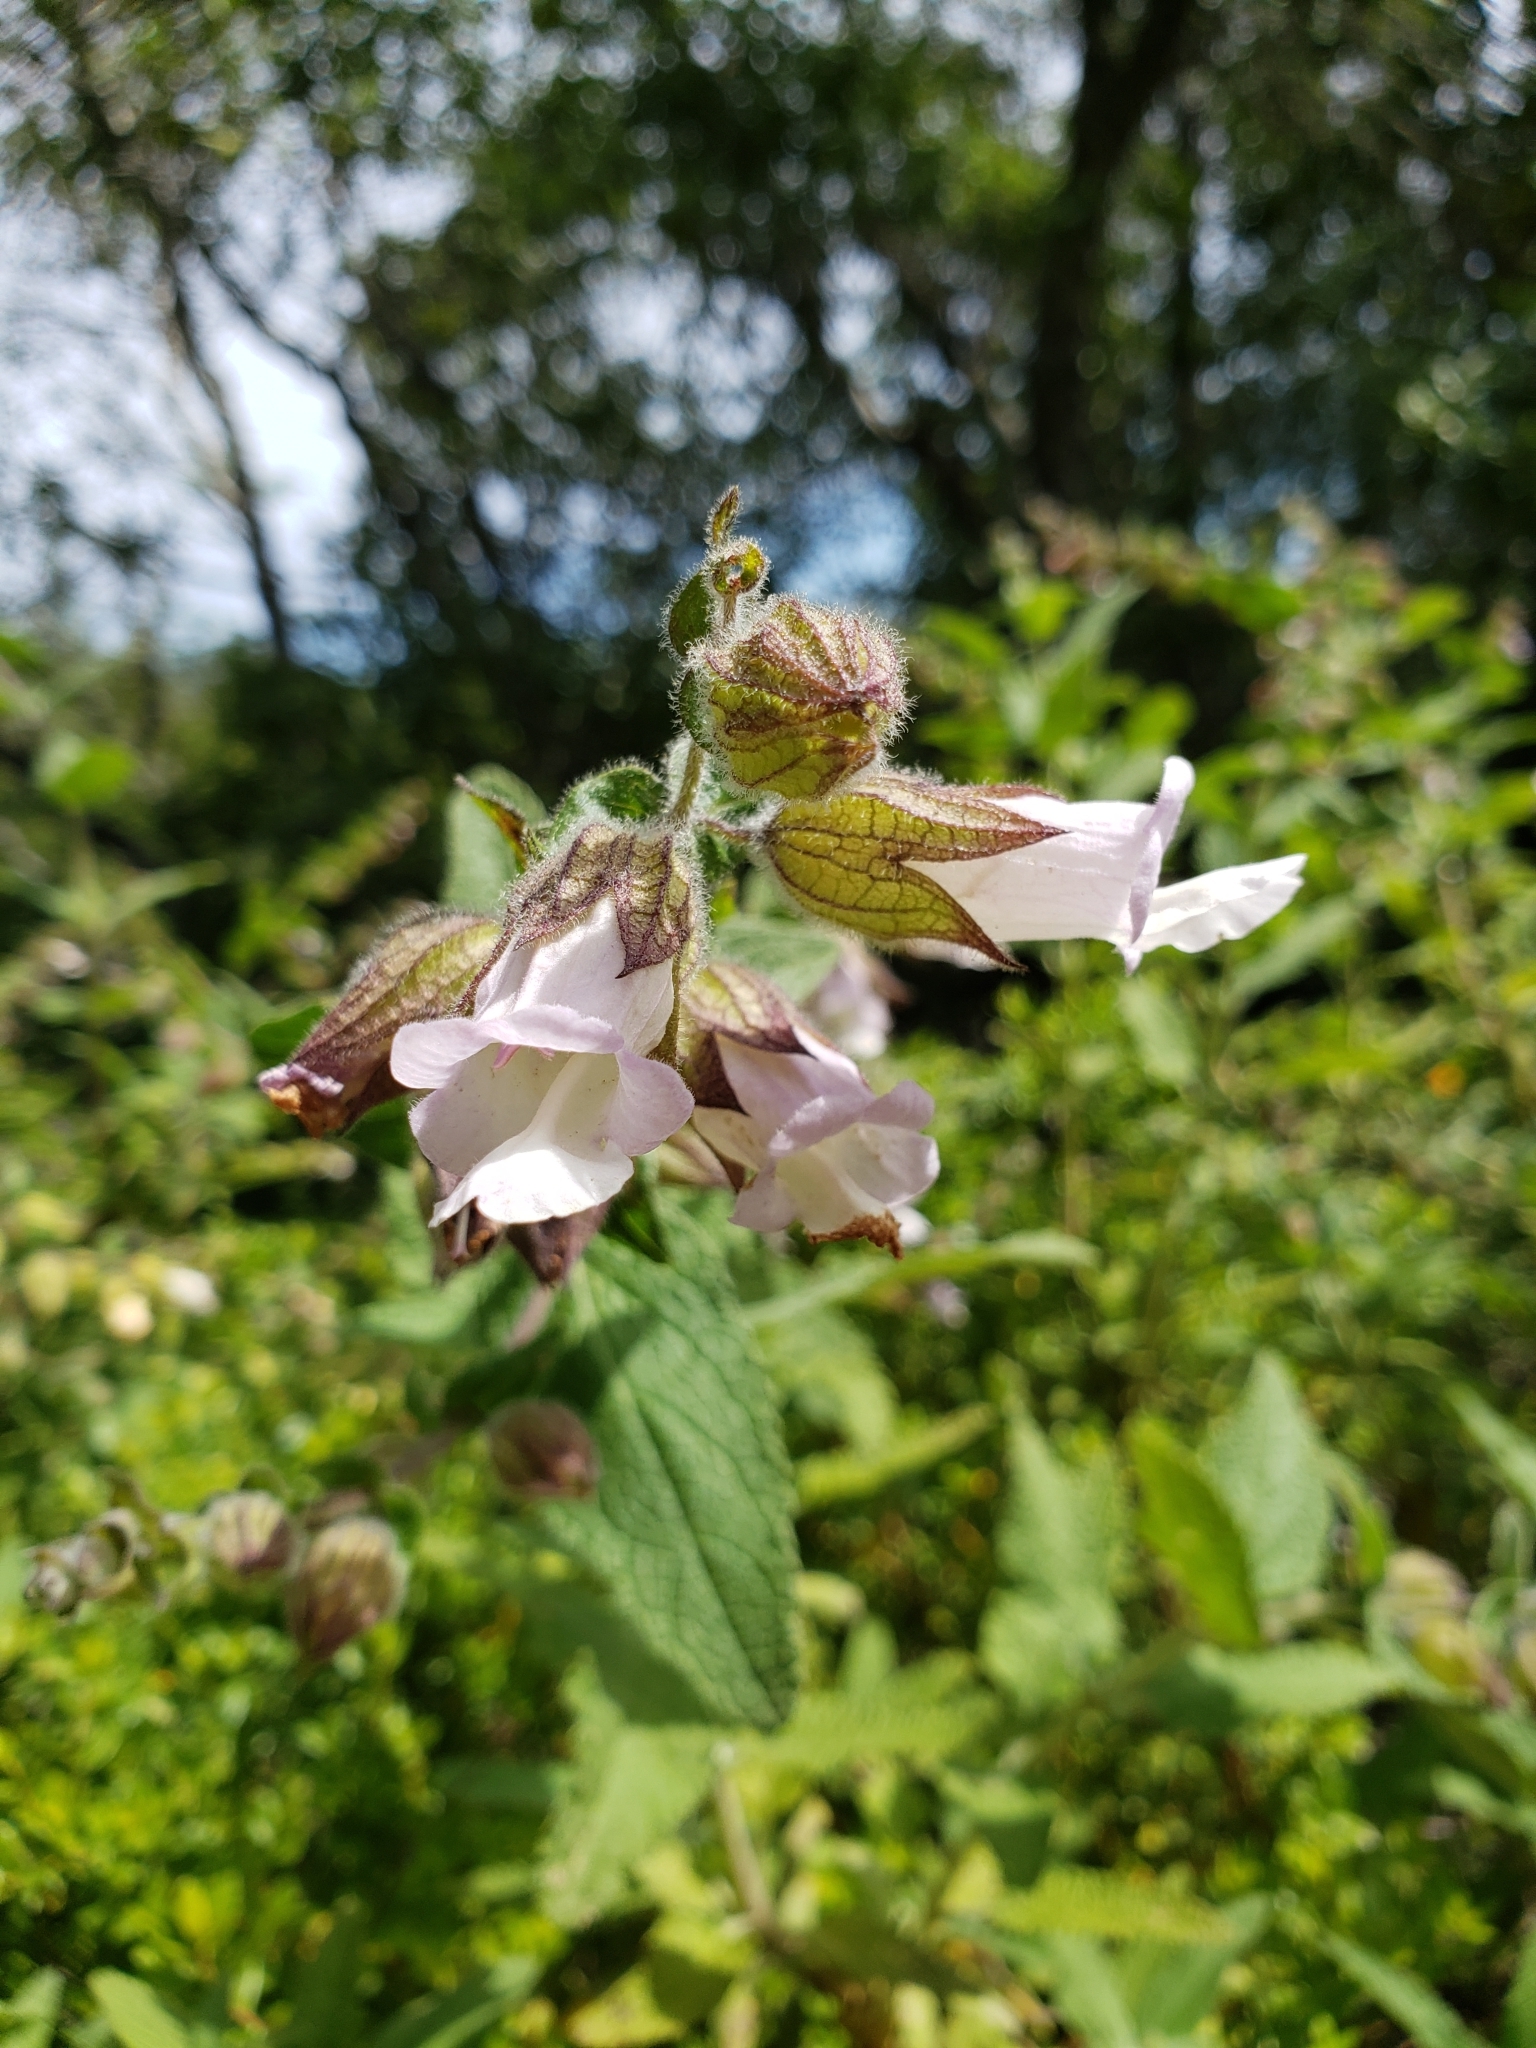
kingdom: Plantae
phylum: Tracheophyta
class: Magnoliopsida
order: Lamiales
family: Lamiaceae
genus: Lepechinia
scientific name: Lepechinia calycina
